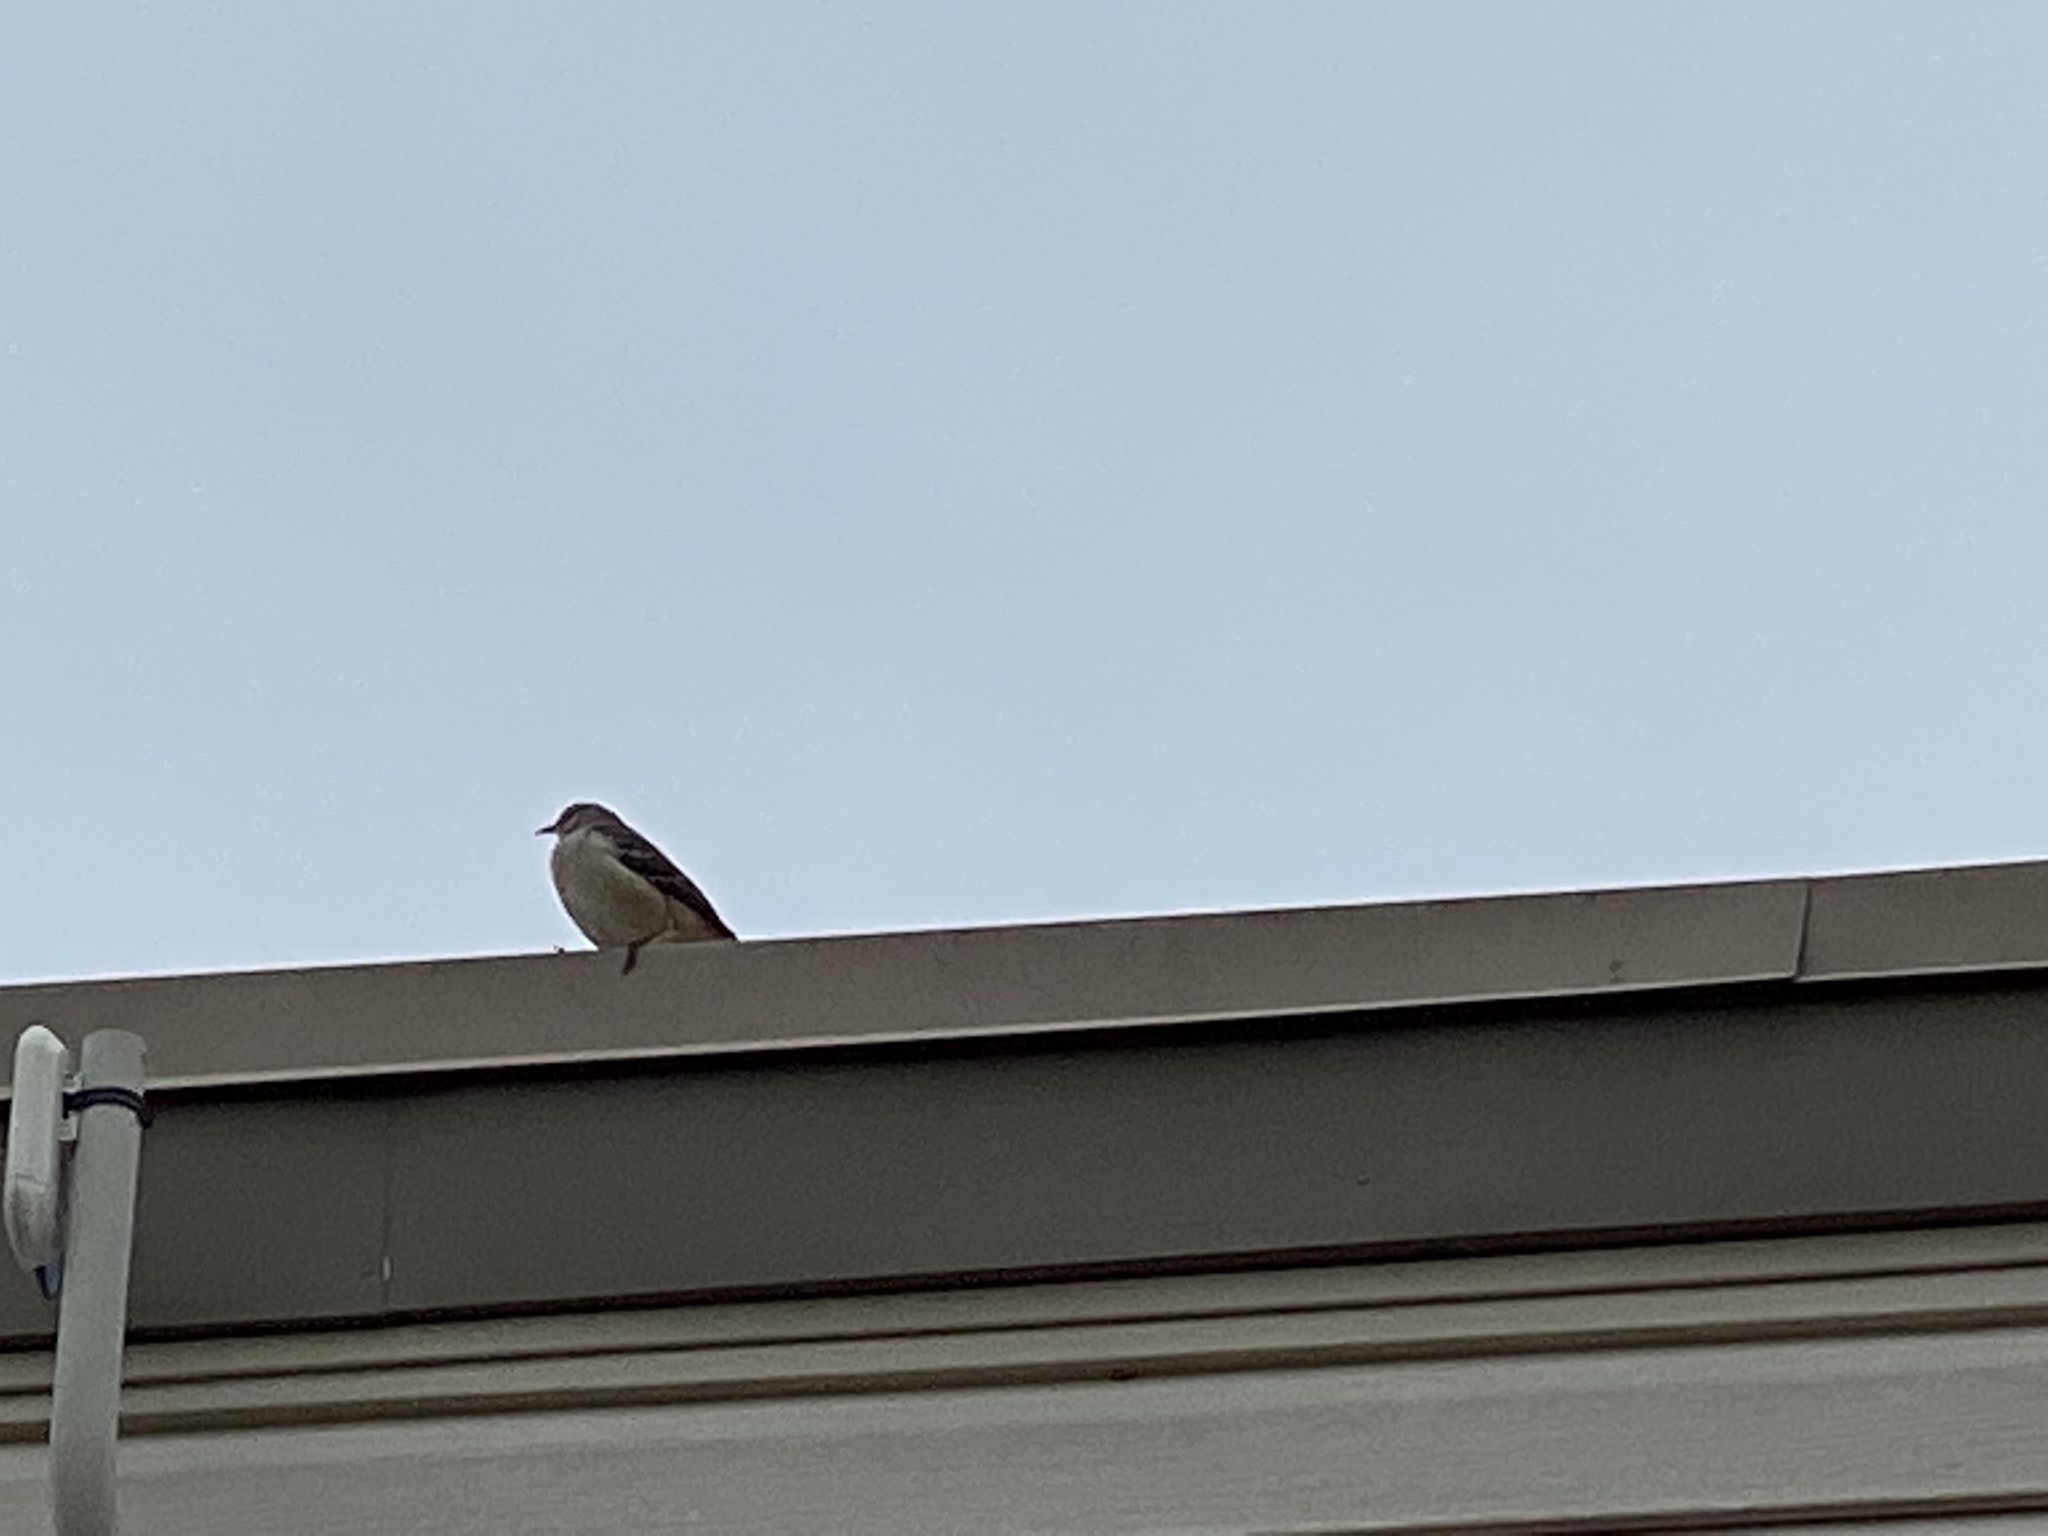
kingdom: Animalia
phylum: Chordata
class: Aves
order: Passeriformes
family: Mimidae
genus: Mimus
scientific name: Mimus polyglottos
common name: Northern mockingbird
